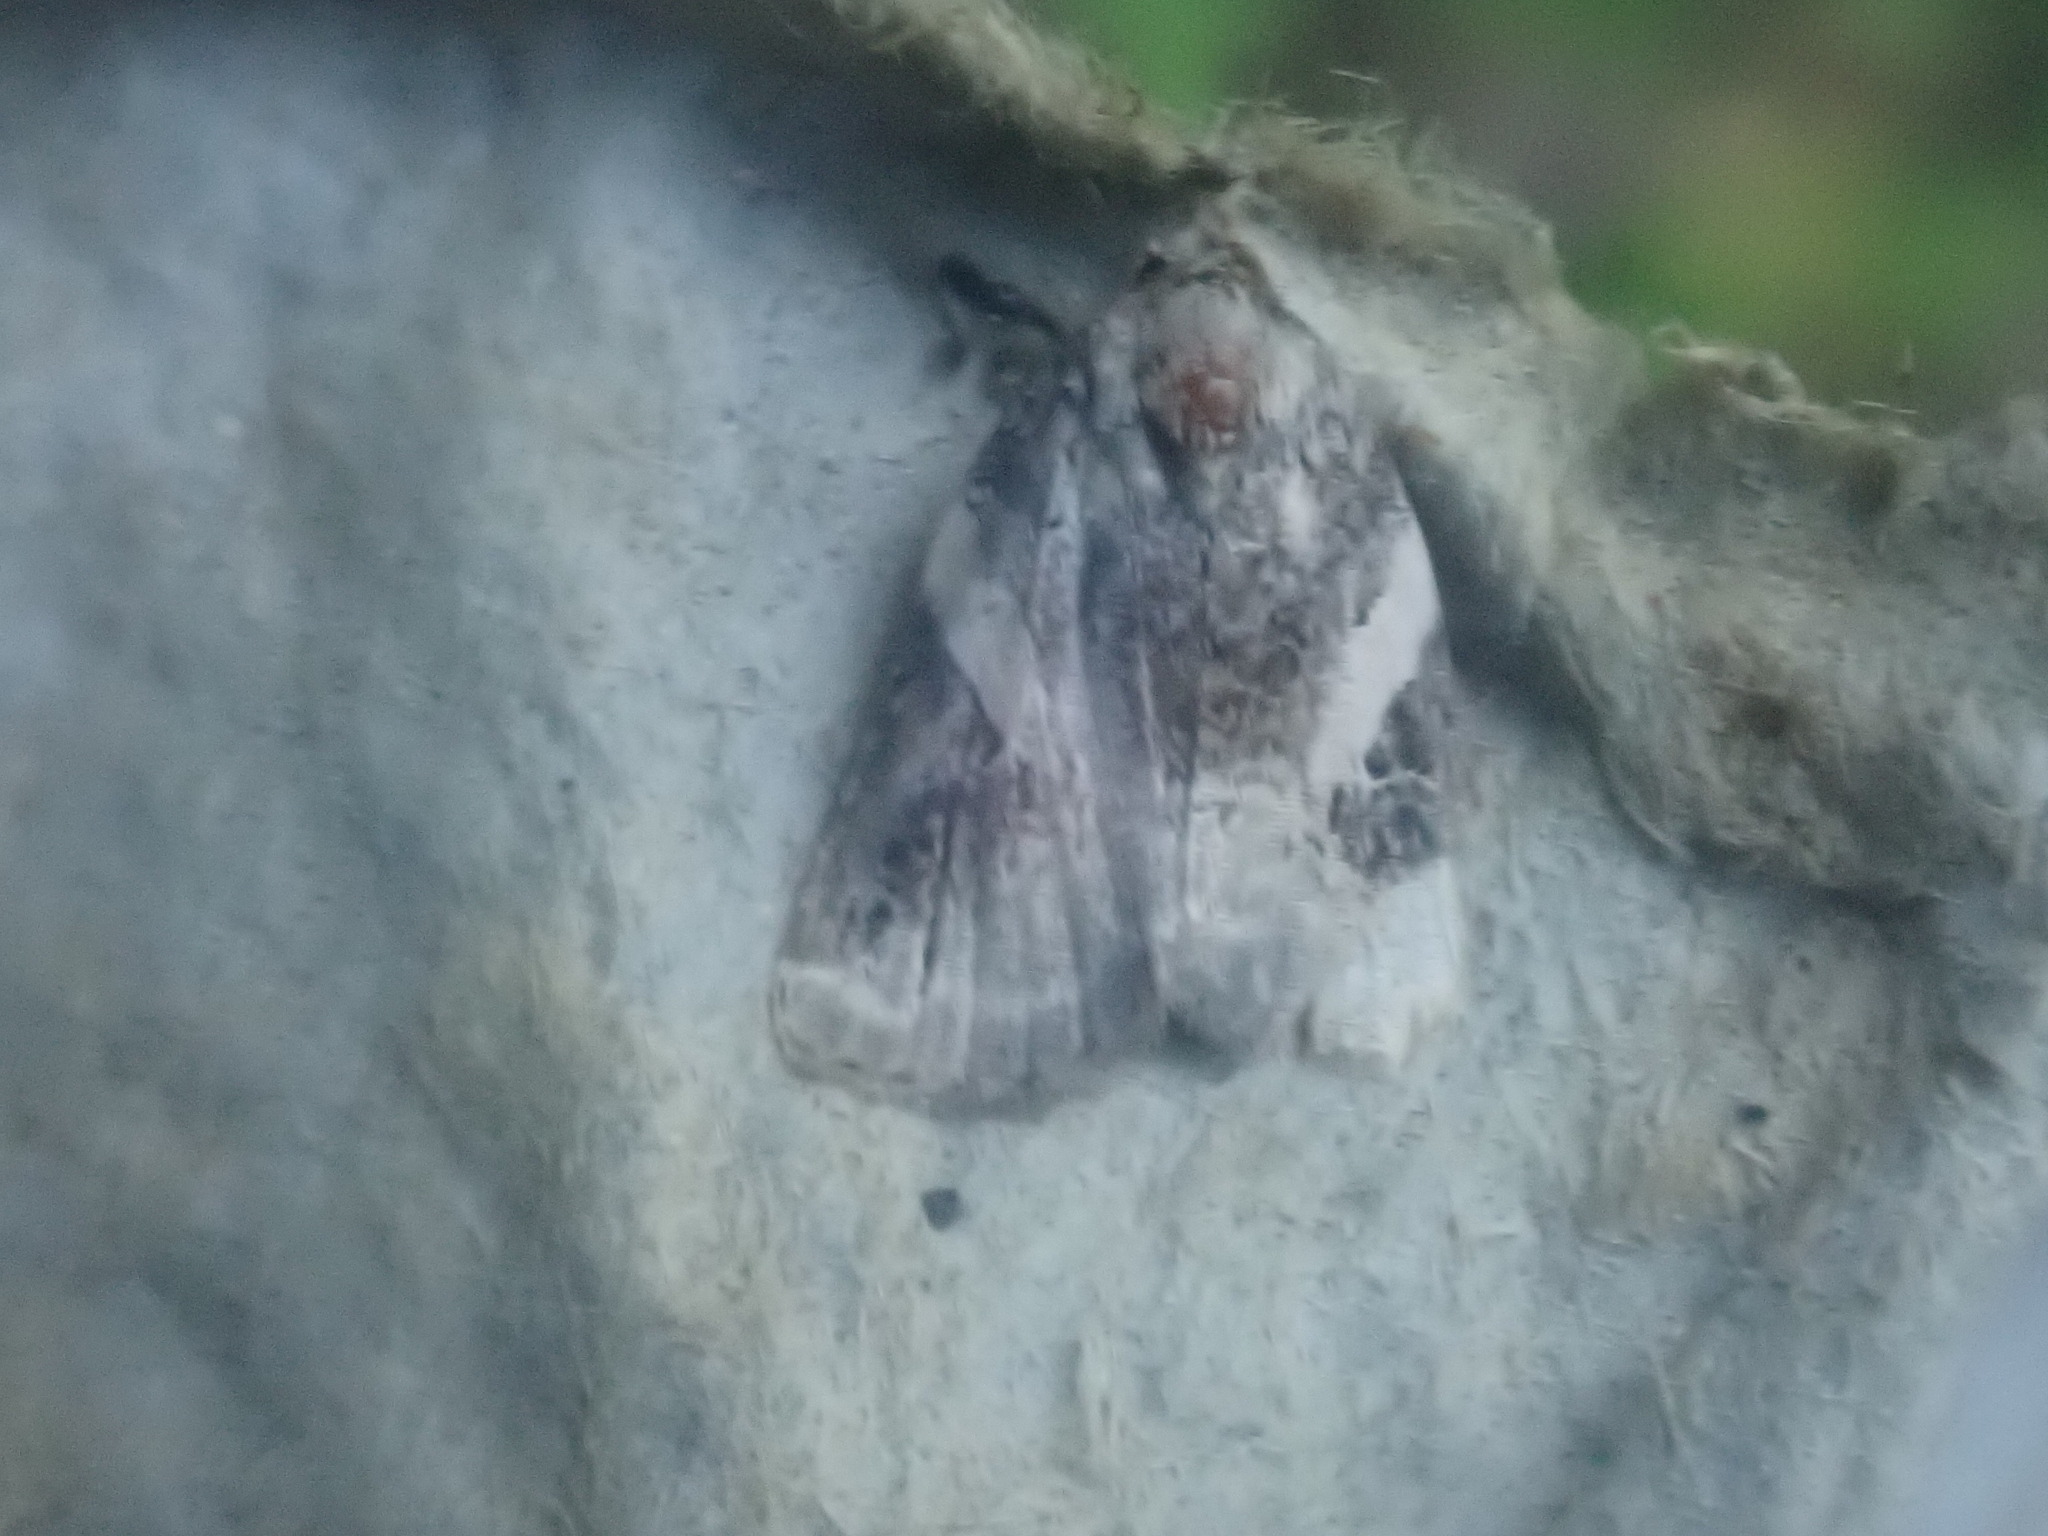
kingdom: Animalia
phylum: Arthropoda
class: Insecta
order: Lepidoptera
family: Noctuidae
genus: Pseudeustrotia
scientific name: Pseudeustrotia carneola
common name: Pink-barred lithacodia moth
